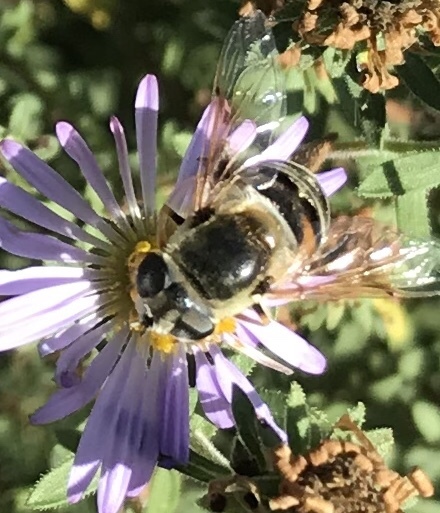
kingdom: Animalia
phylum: Arthropoda
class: Insecta
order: Diptera
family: Syrphidae
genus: Eristalis
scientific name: Eristalis stipator
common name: Yellow-shouldered drone fly
